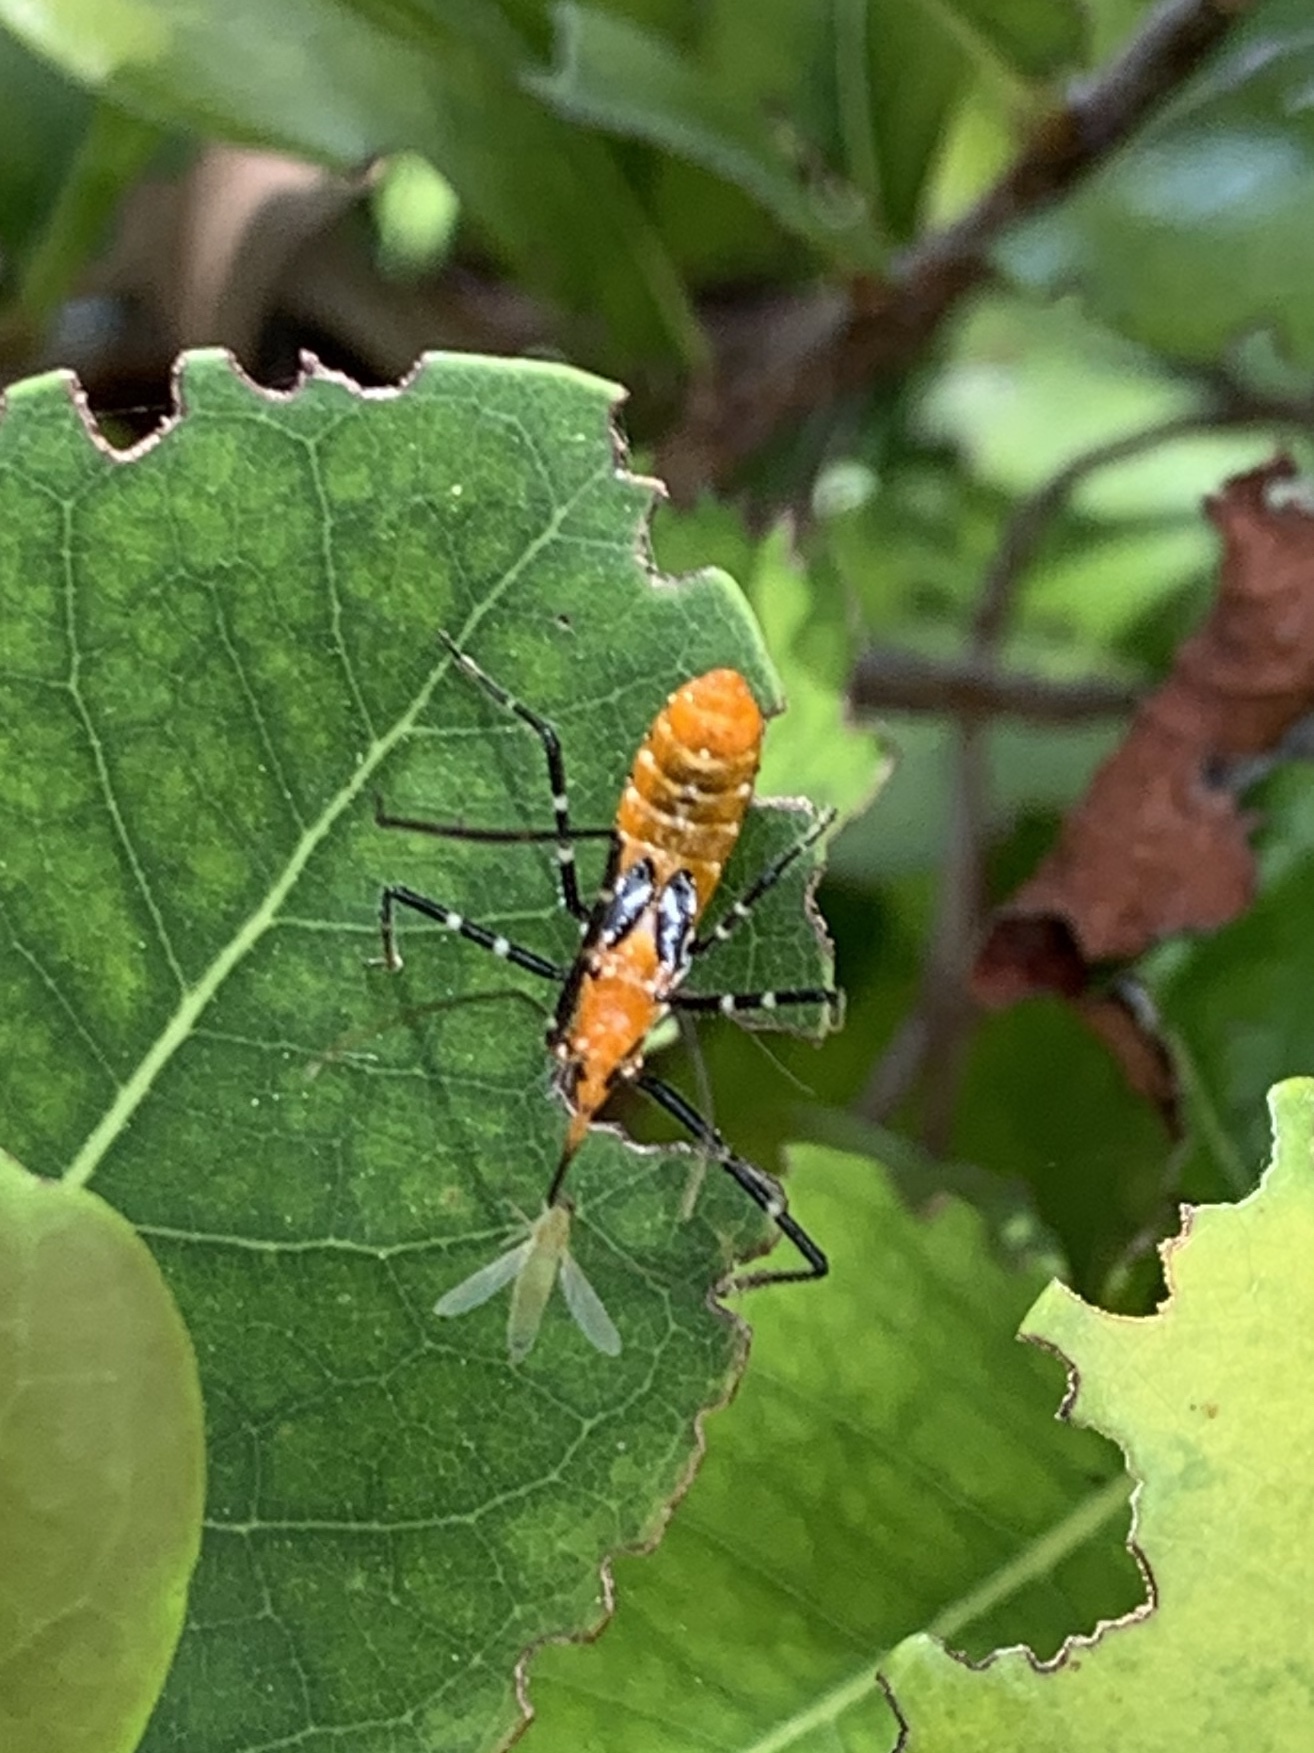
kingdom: Animalia
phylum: Arthropoda
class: Insecta
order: Hemiptera
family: Reduviidae
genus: Zelus
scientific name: Zelus longipes
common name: Milkweed assassin bug
